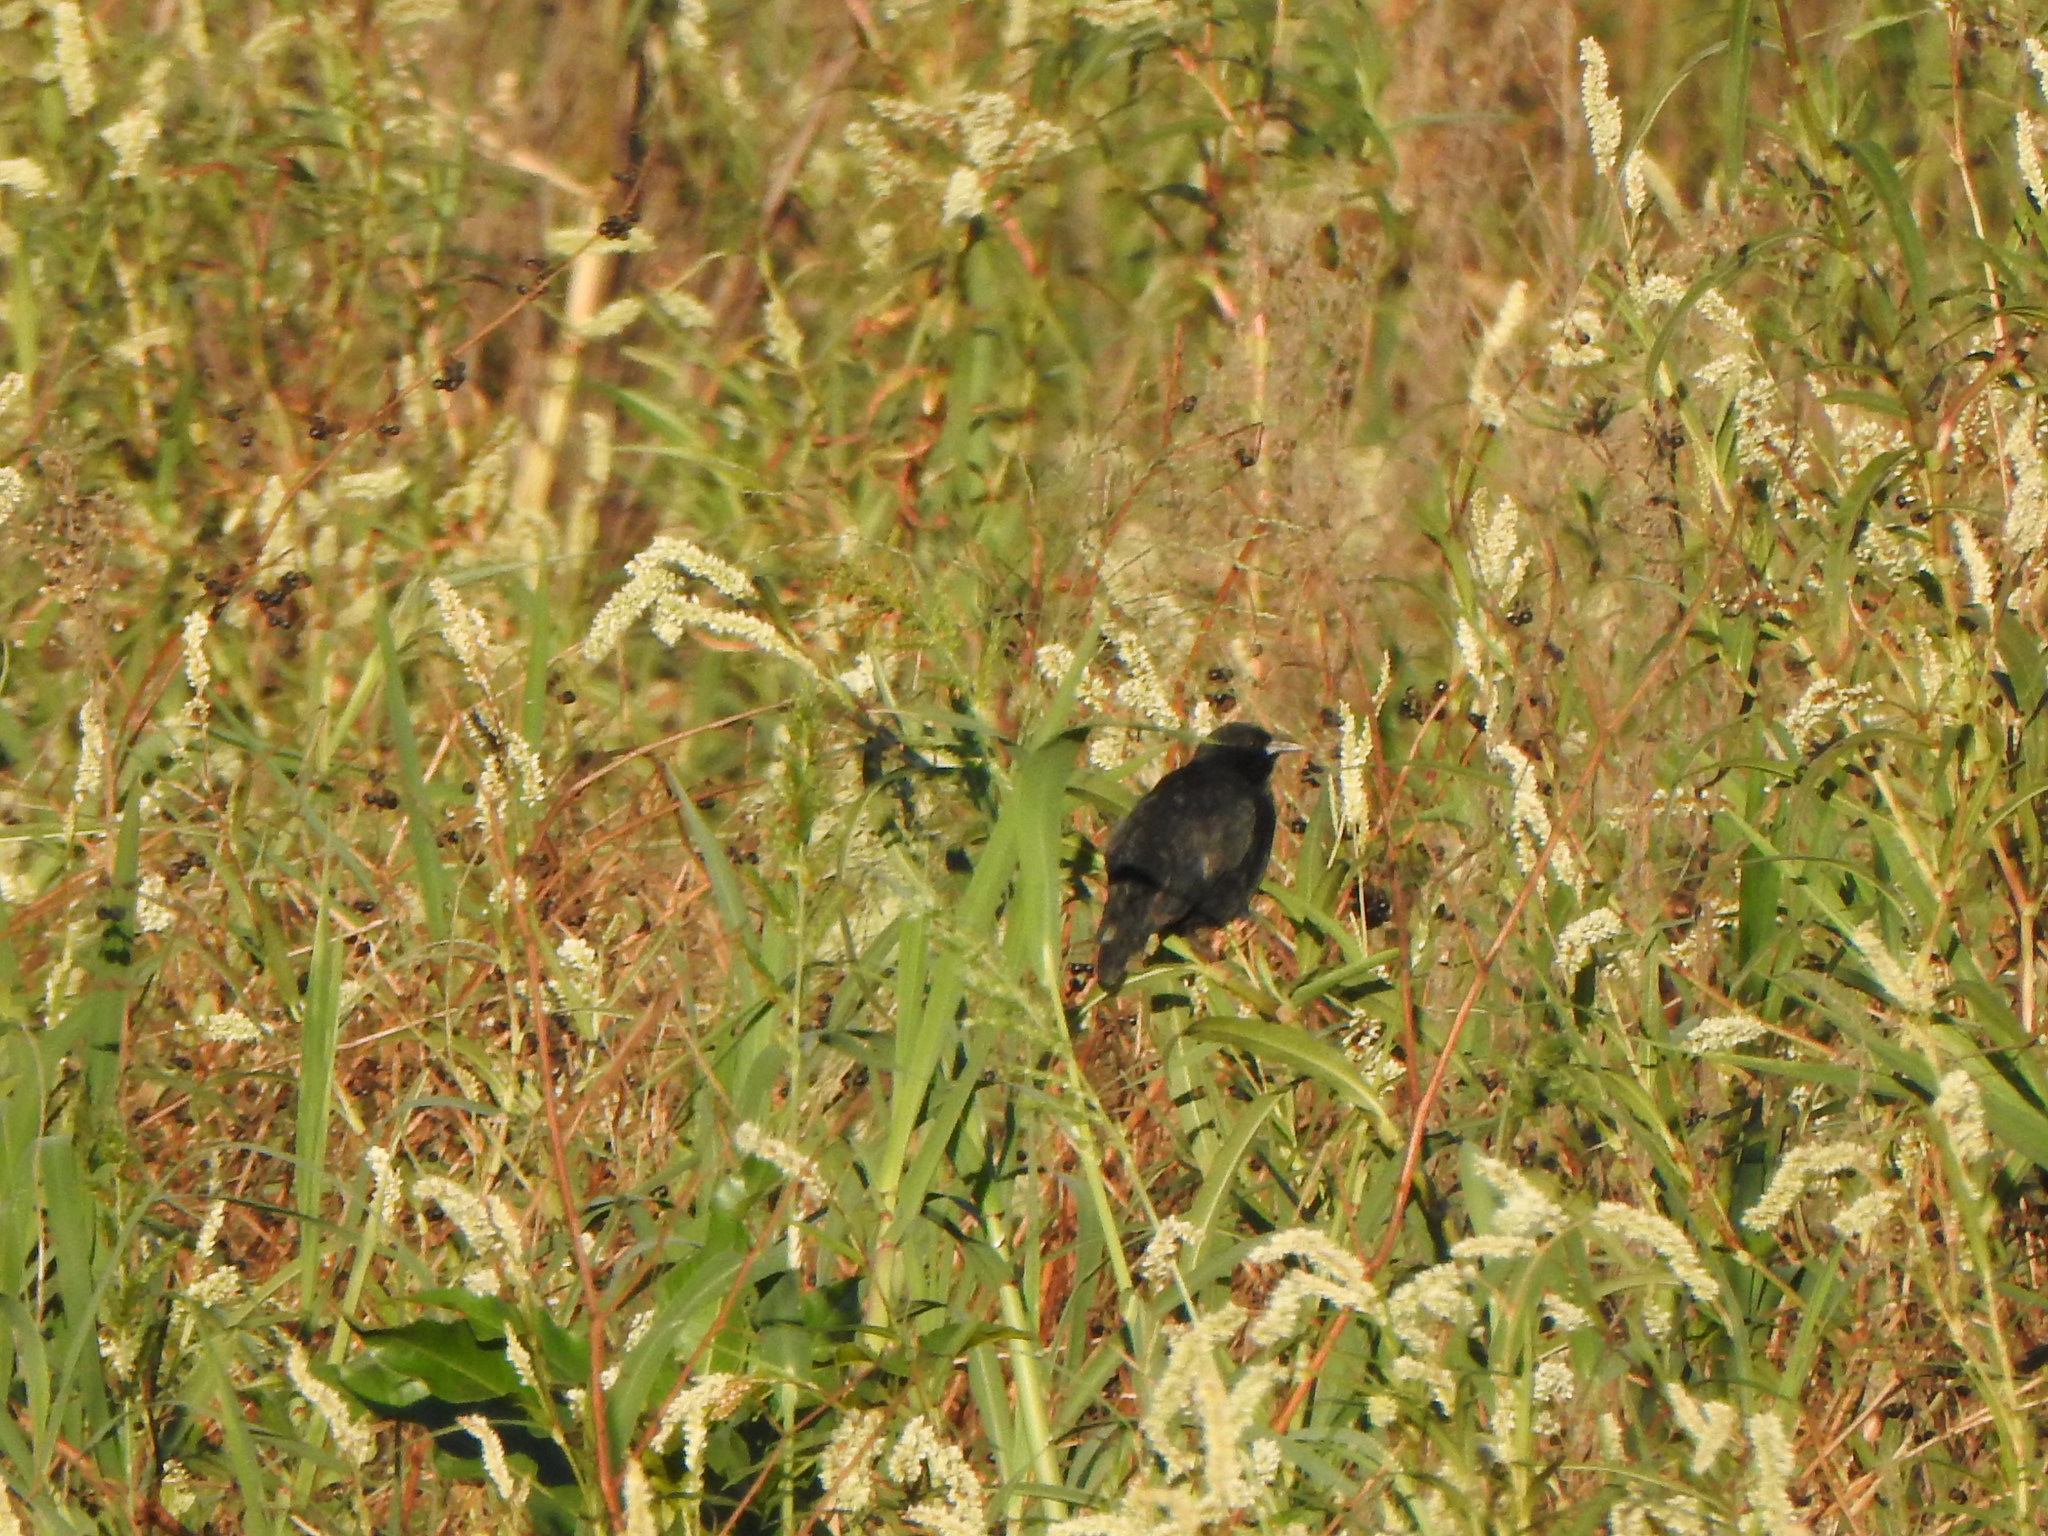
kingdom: Animalia
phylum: Chordata
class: Aves
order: Passeriformes
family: Icteridae
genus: Agelasticus
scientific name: Agelasticus cyanopus
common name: Unicolored blackbird
